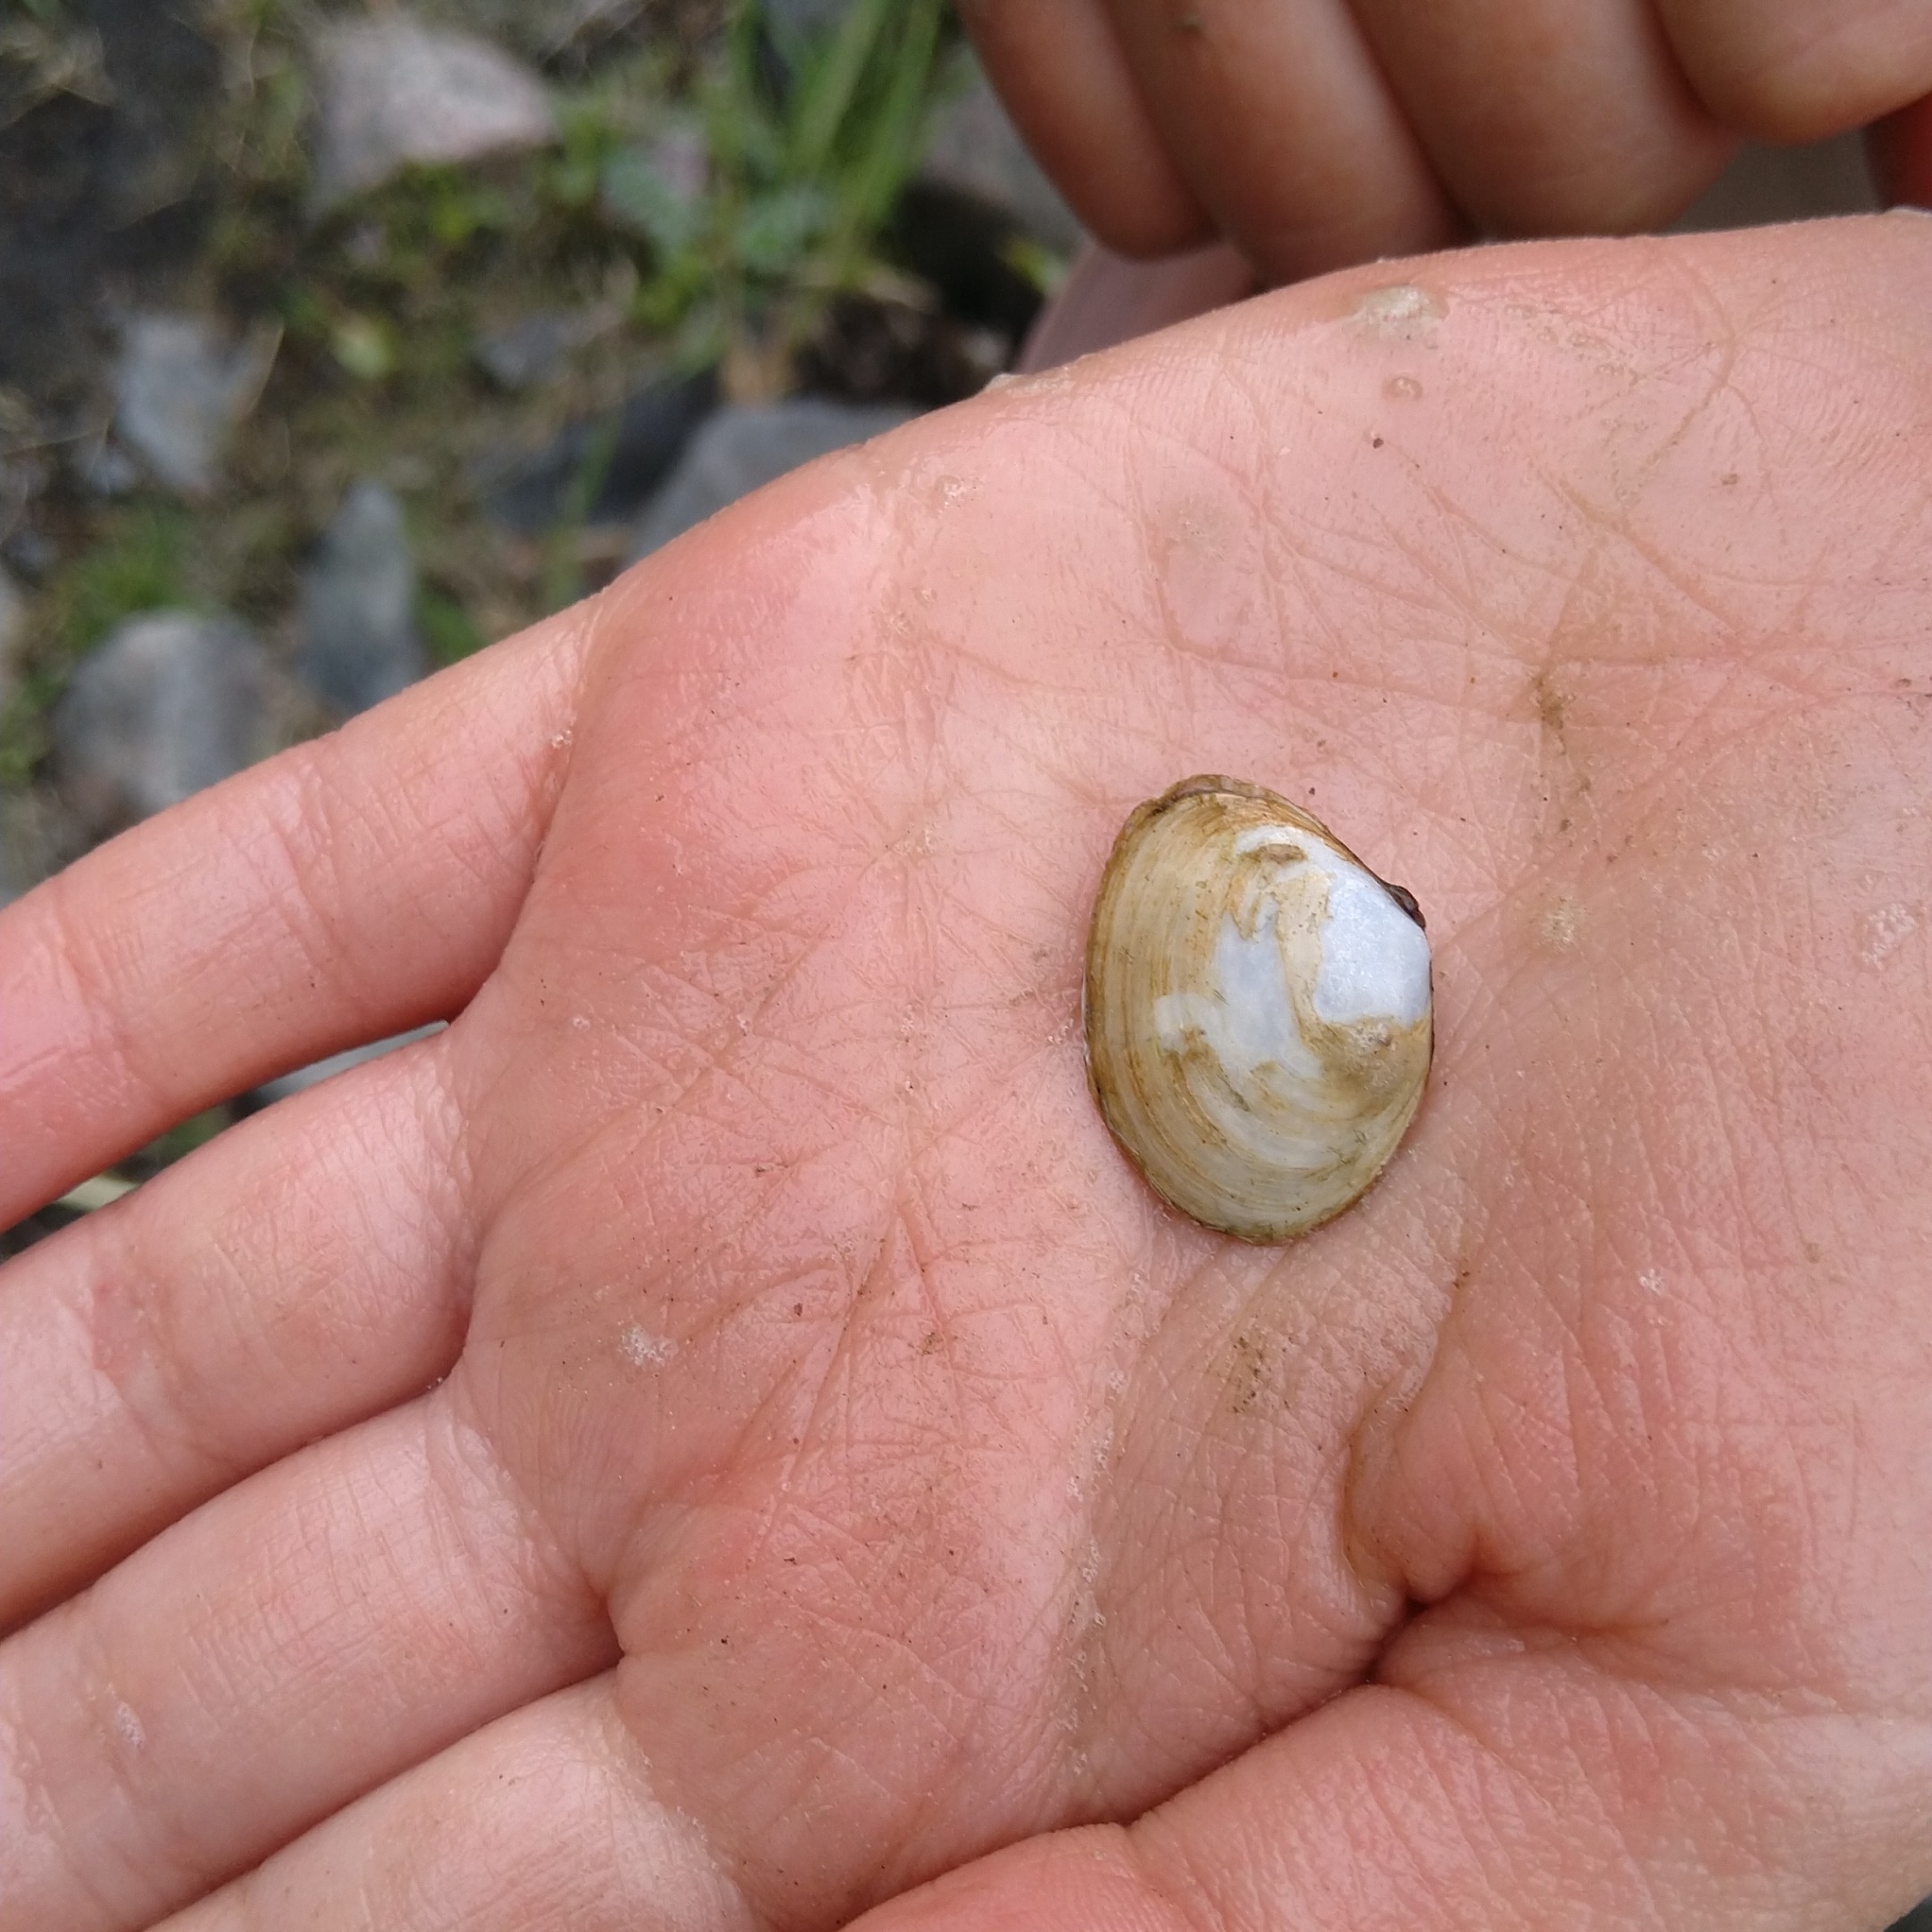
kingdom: Animalia
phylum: Mollusca
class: Bivalvia
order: Cardiida
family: Tellinidae
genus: Macoma
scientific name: Macoma balthica
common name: Baltic tellin
